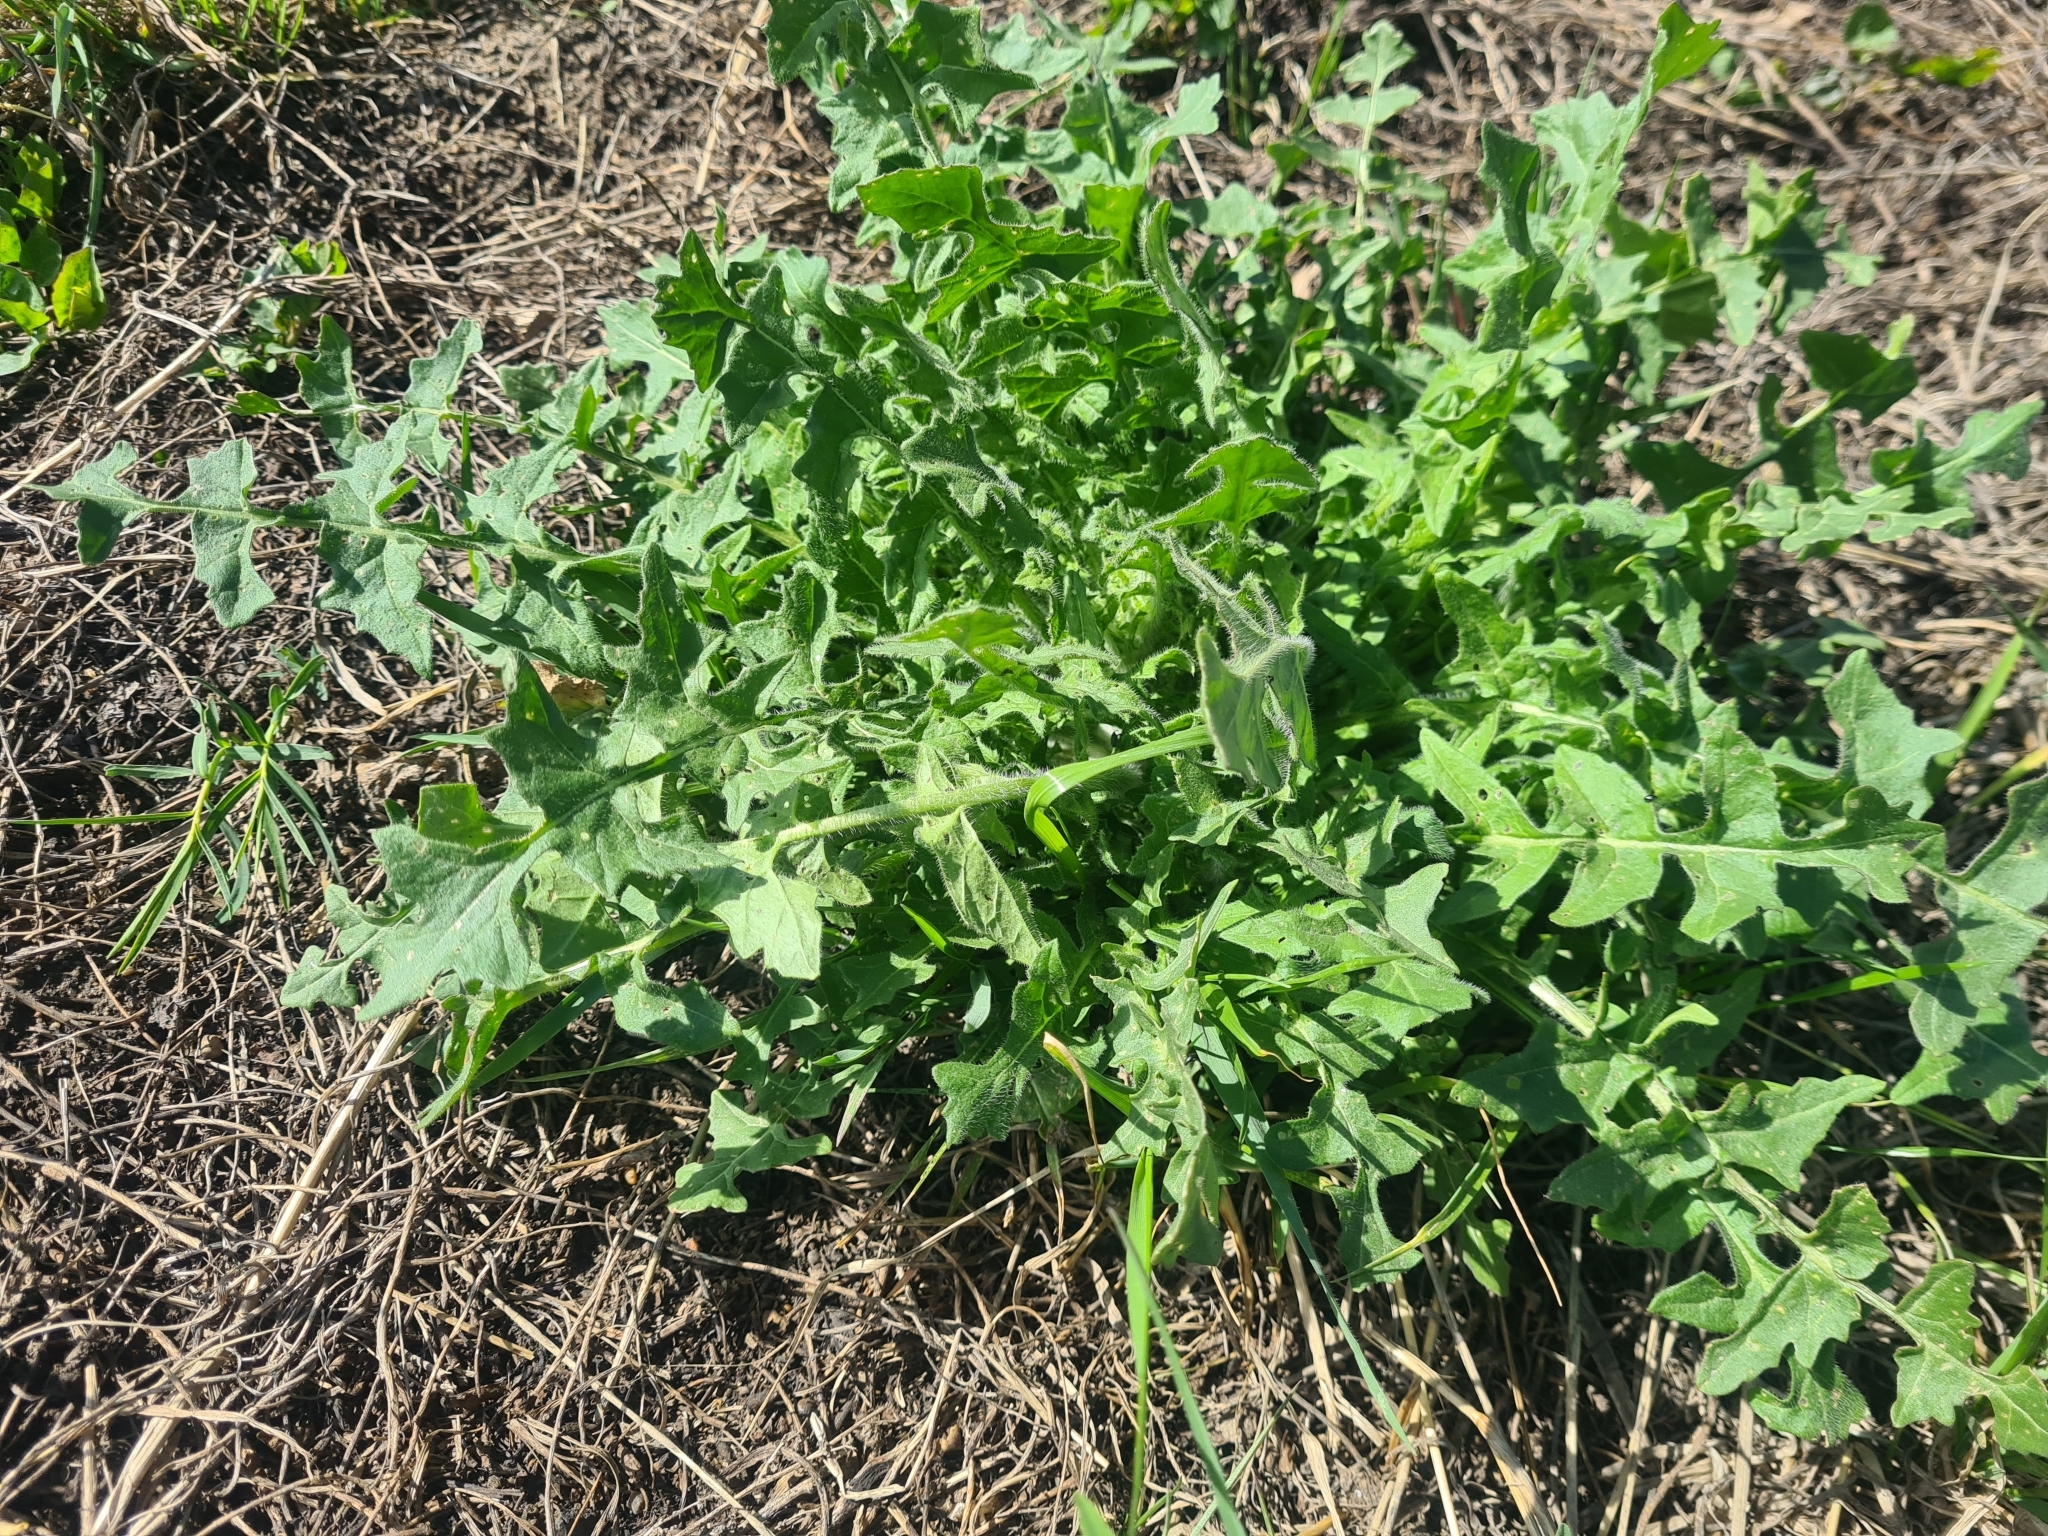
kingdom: Plantae
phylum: Tracheophyta
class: Magnoliopsida
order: Brassicales
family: Brassicaceae
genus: Sisymbrium
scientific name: Sisymbrium loeselii
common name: False london-rocket
